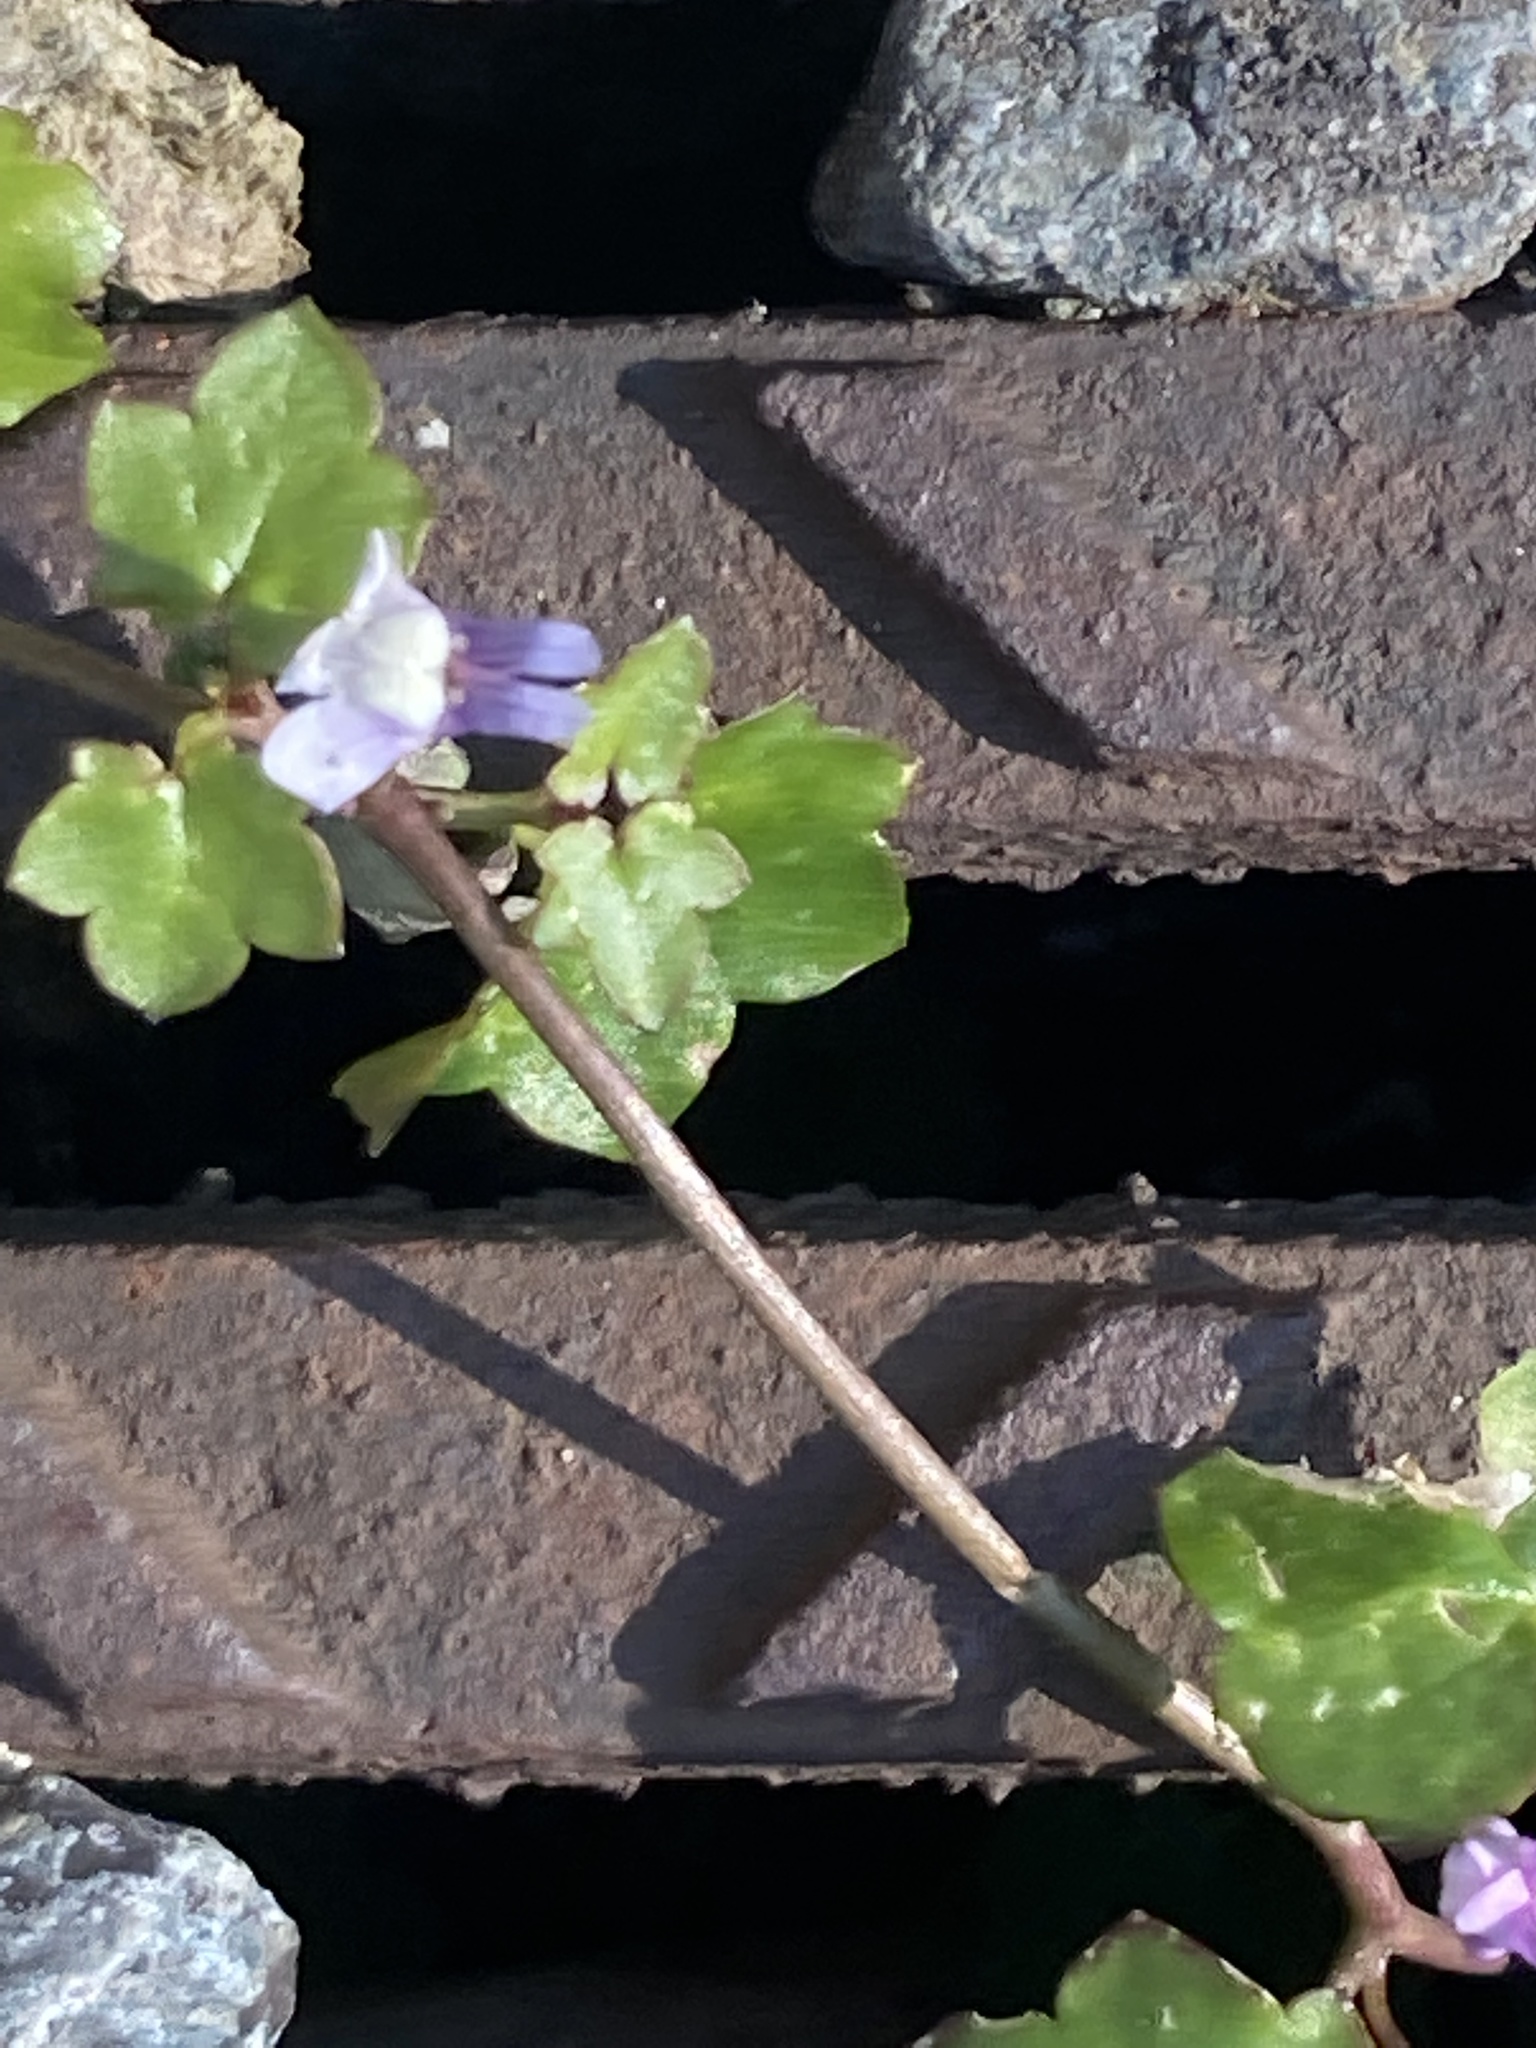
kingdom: Plantae
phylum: Tracheophyta
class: Magnoliopsida
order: Lamiales
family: Plantaginaceae
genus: Cymbalaria
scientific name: Cymbalaria muralis
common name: Ivy-leaved toadflax
